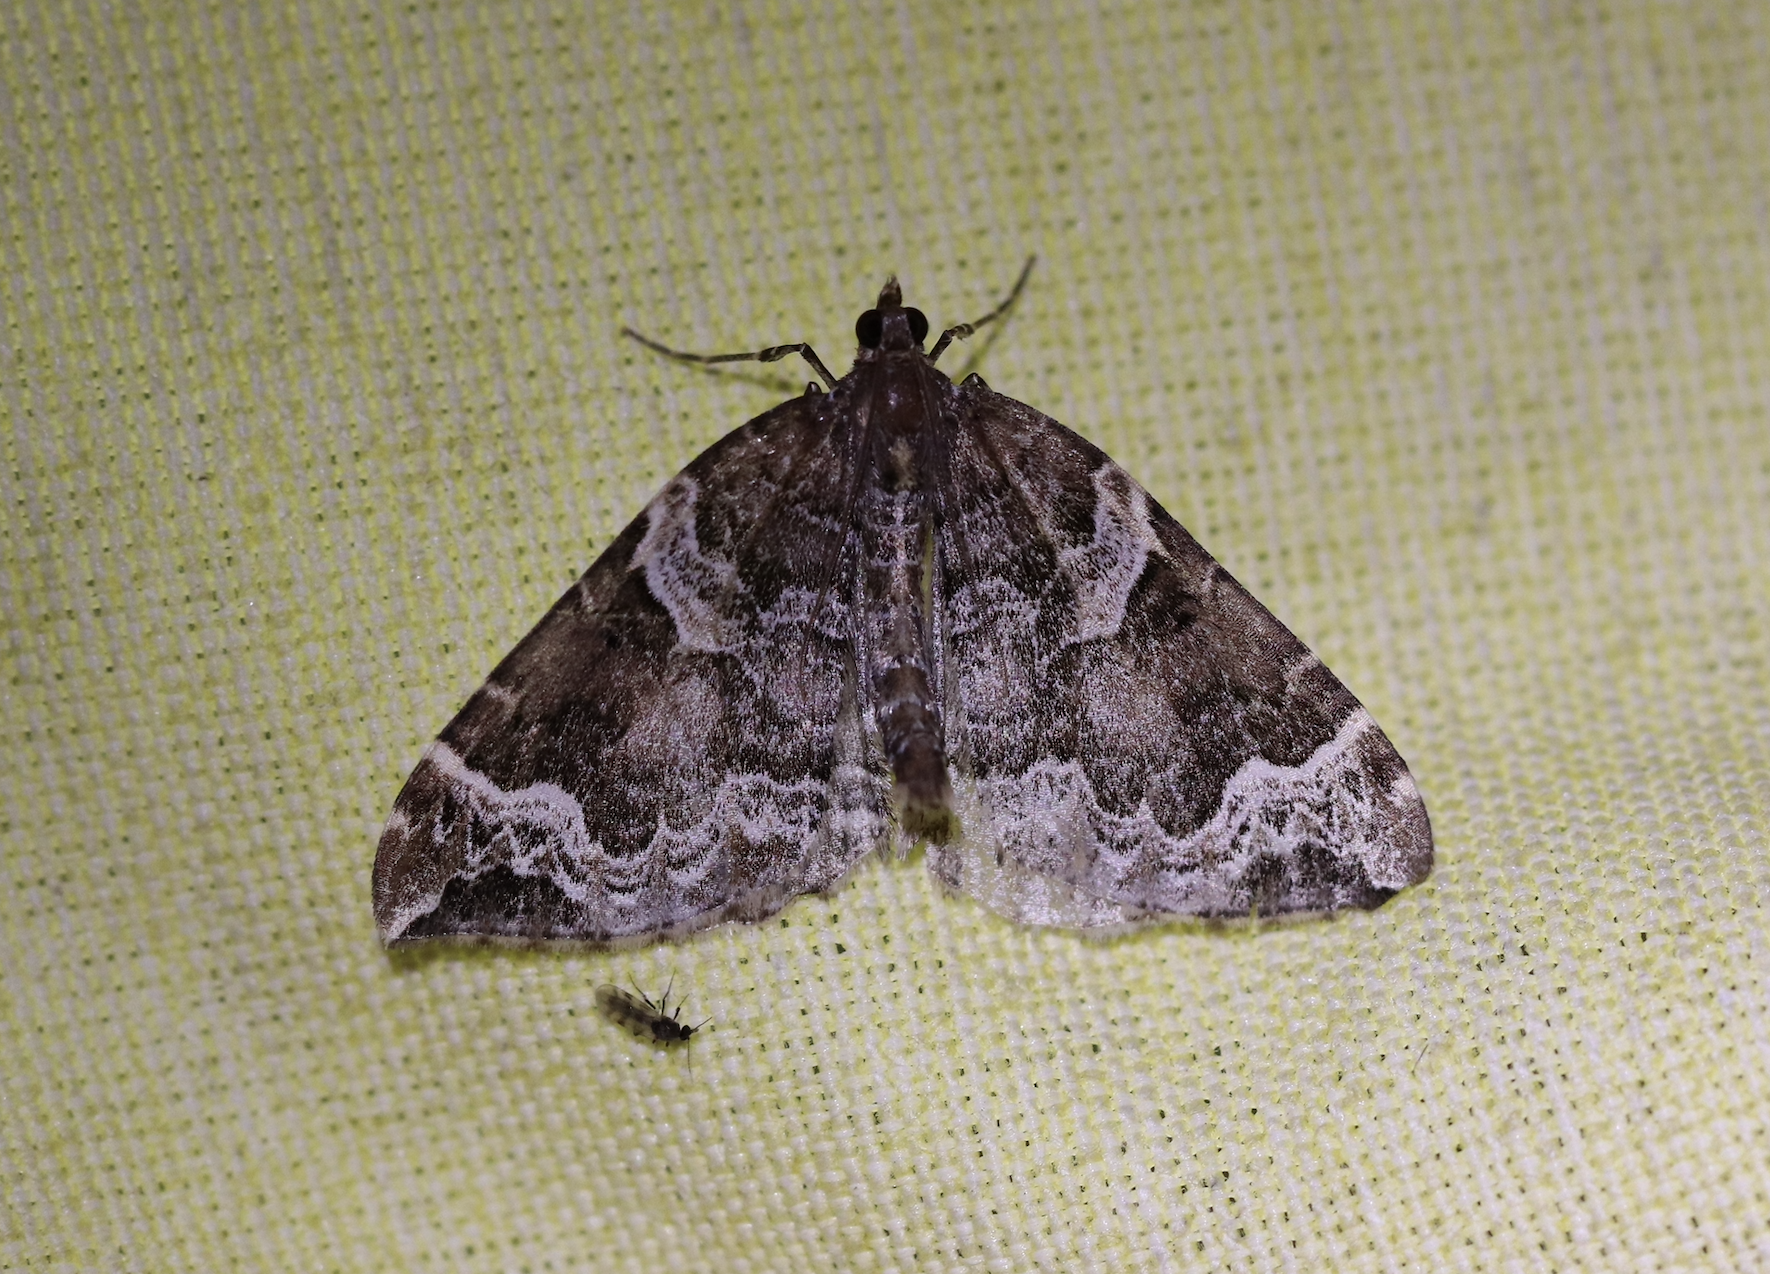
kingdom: Animalia
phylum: Arthropoda
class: Insecta
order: Lepidoptera
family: Geometridae
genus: Eulithis
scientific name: Eulithis prunata
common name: Phoenix
